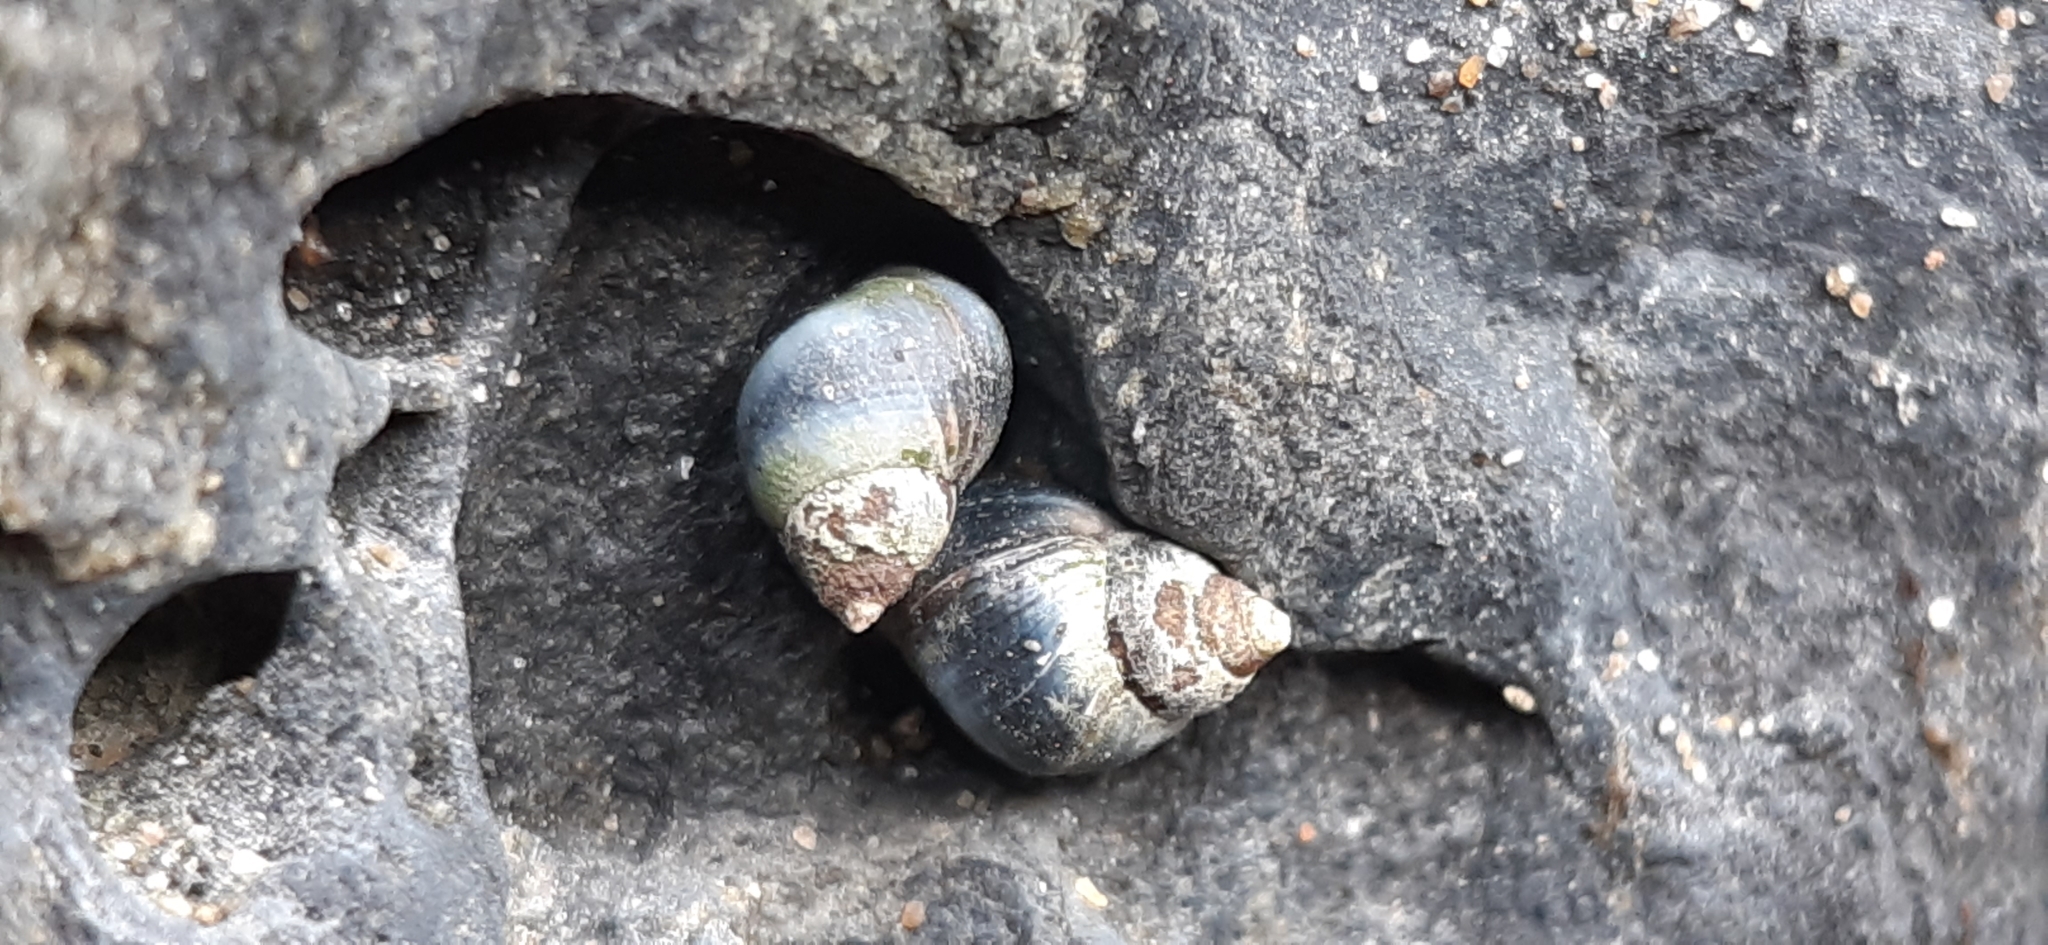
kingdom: Animalia
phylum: Mollusca
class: Gastropoda
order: Littorinimorpha
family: Littorinidae
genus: Austrolittorina
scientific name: Austrolittorina antipodum
